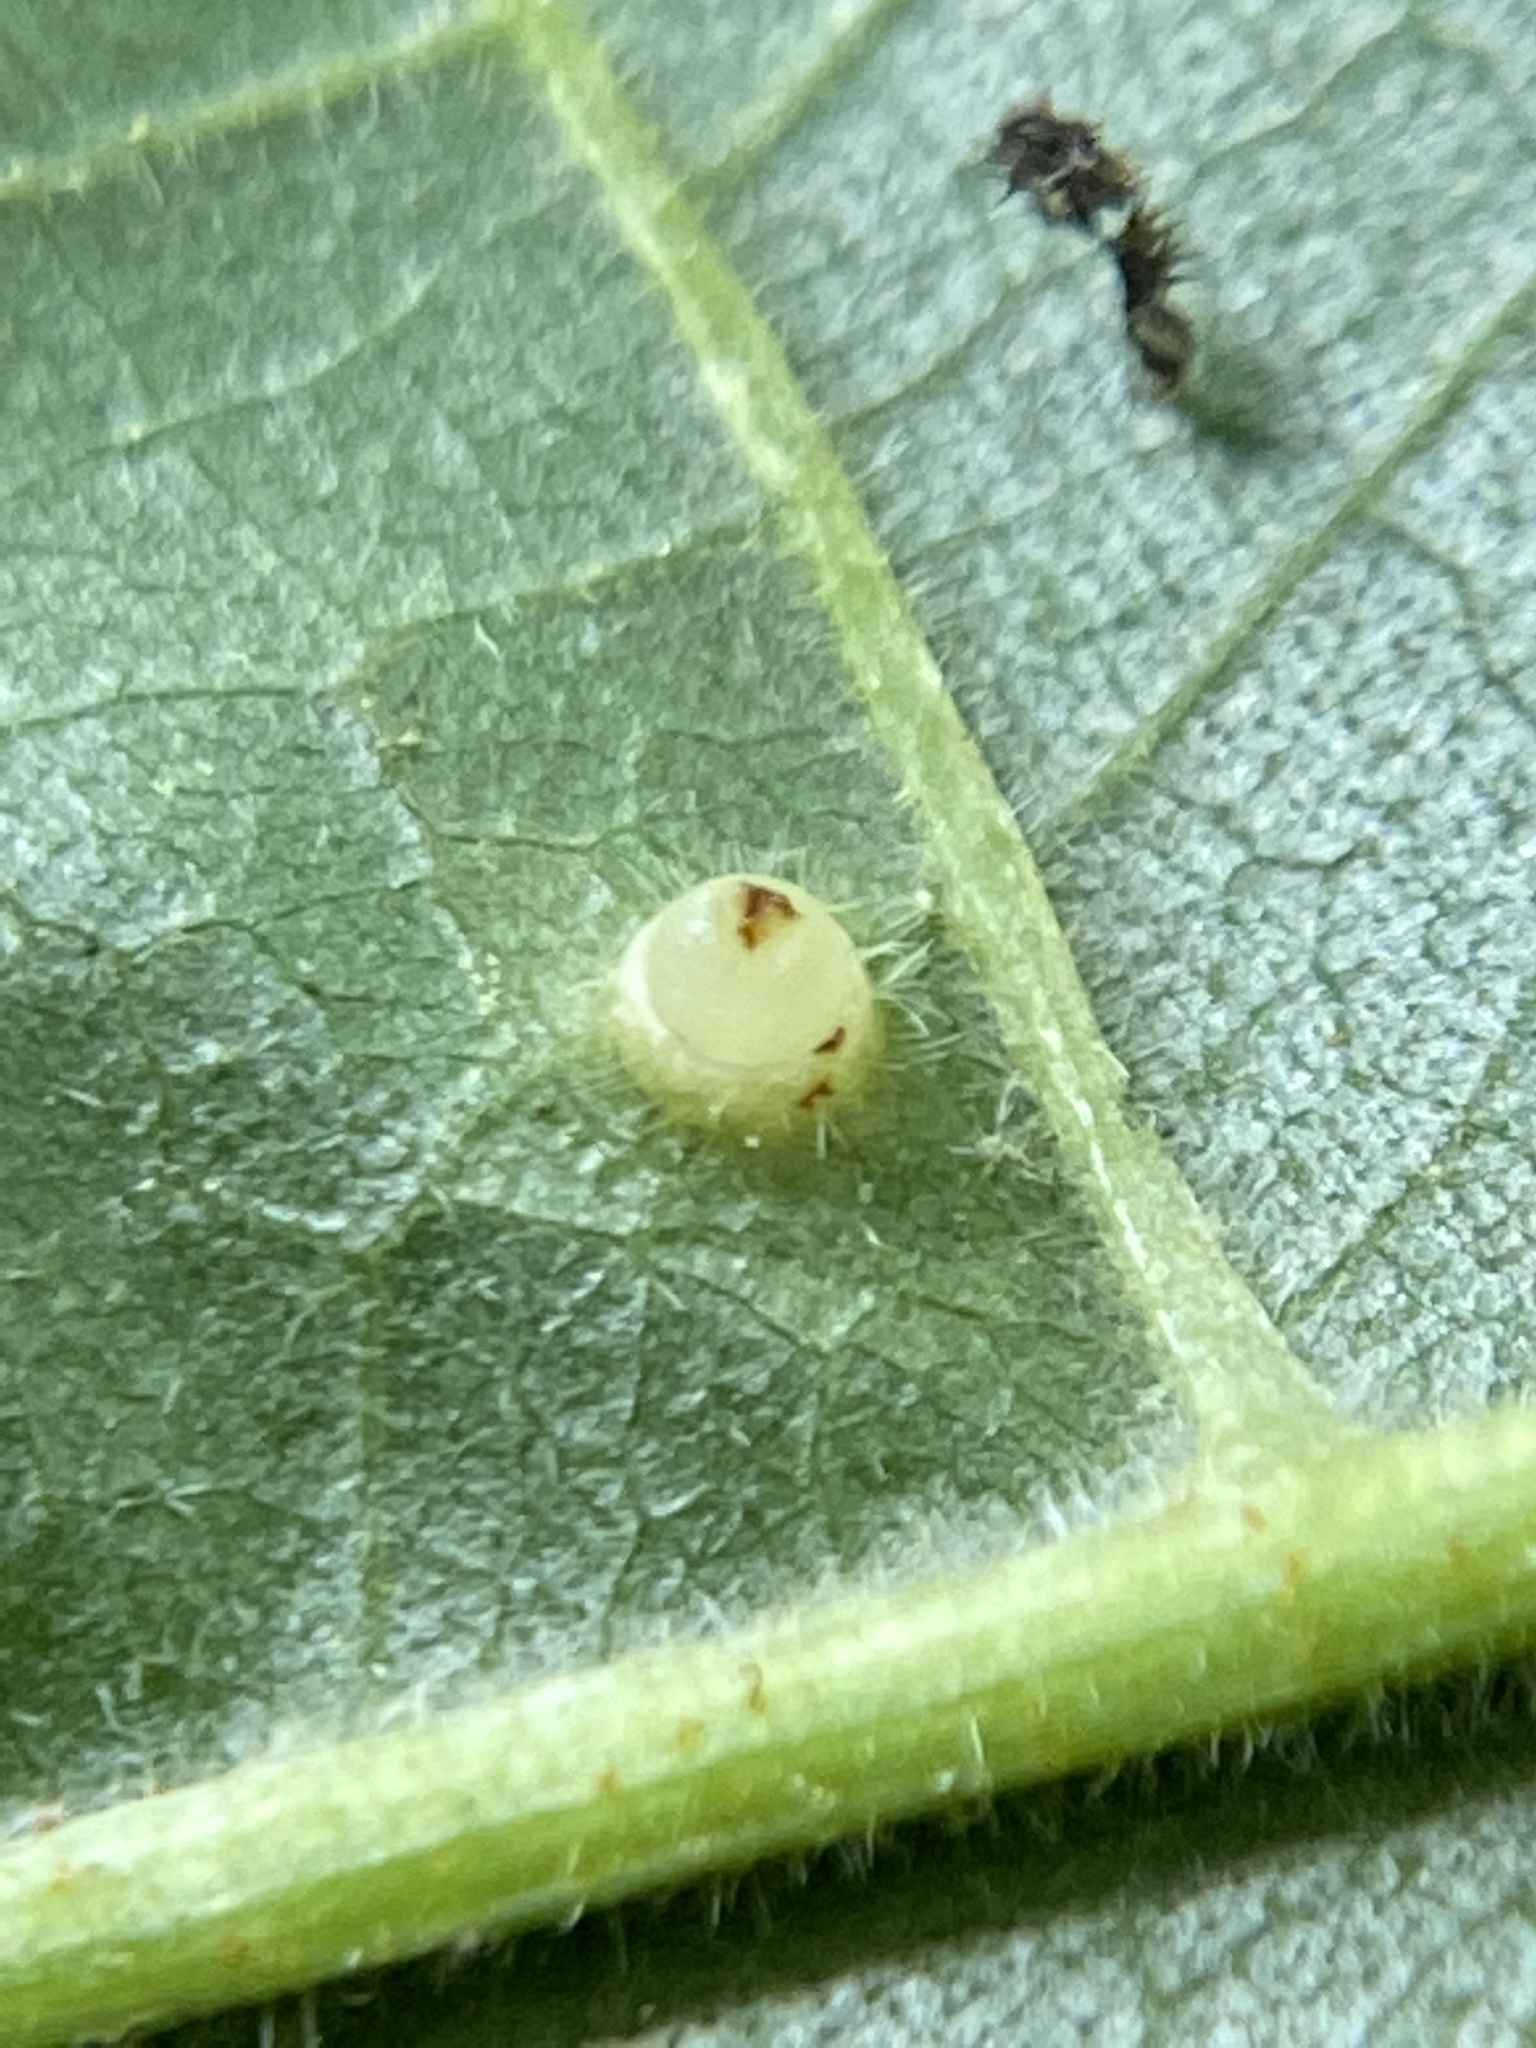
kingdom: Animalia
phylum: Arthropoda
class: Insecta
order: Diptera
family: Cecidomyiidae
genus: Caryomyia
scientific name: Caryomyia tubicola
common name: Hickory bullet gall midge
